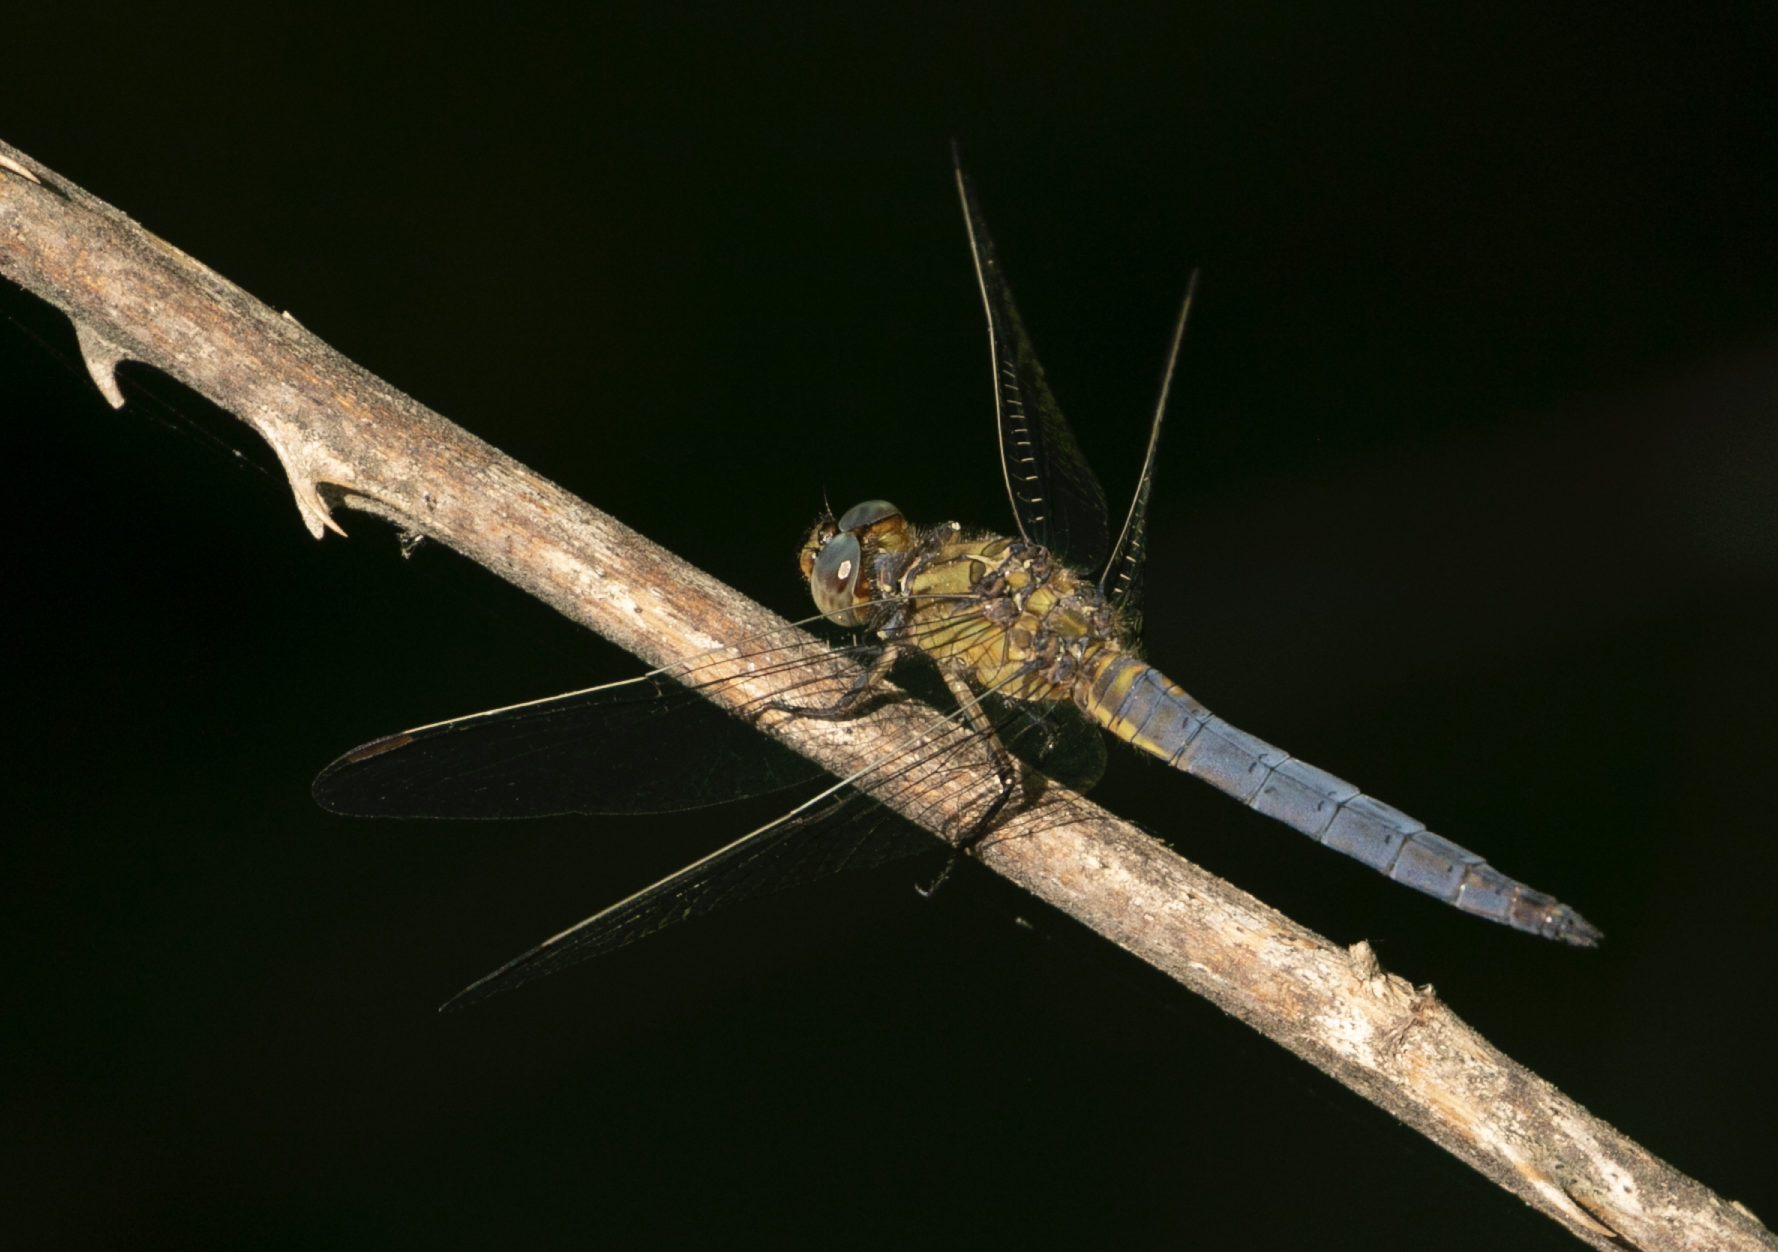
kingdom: Animalia
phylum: Arthropoda
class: Insecta
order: Odonata
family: Libellulidae
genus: Orthetrum
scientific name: Orthetrum coerulescens
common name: Keeled skimmer
